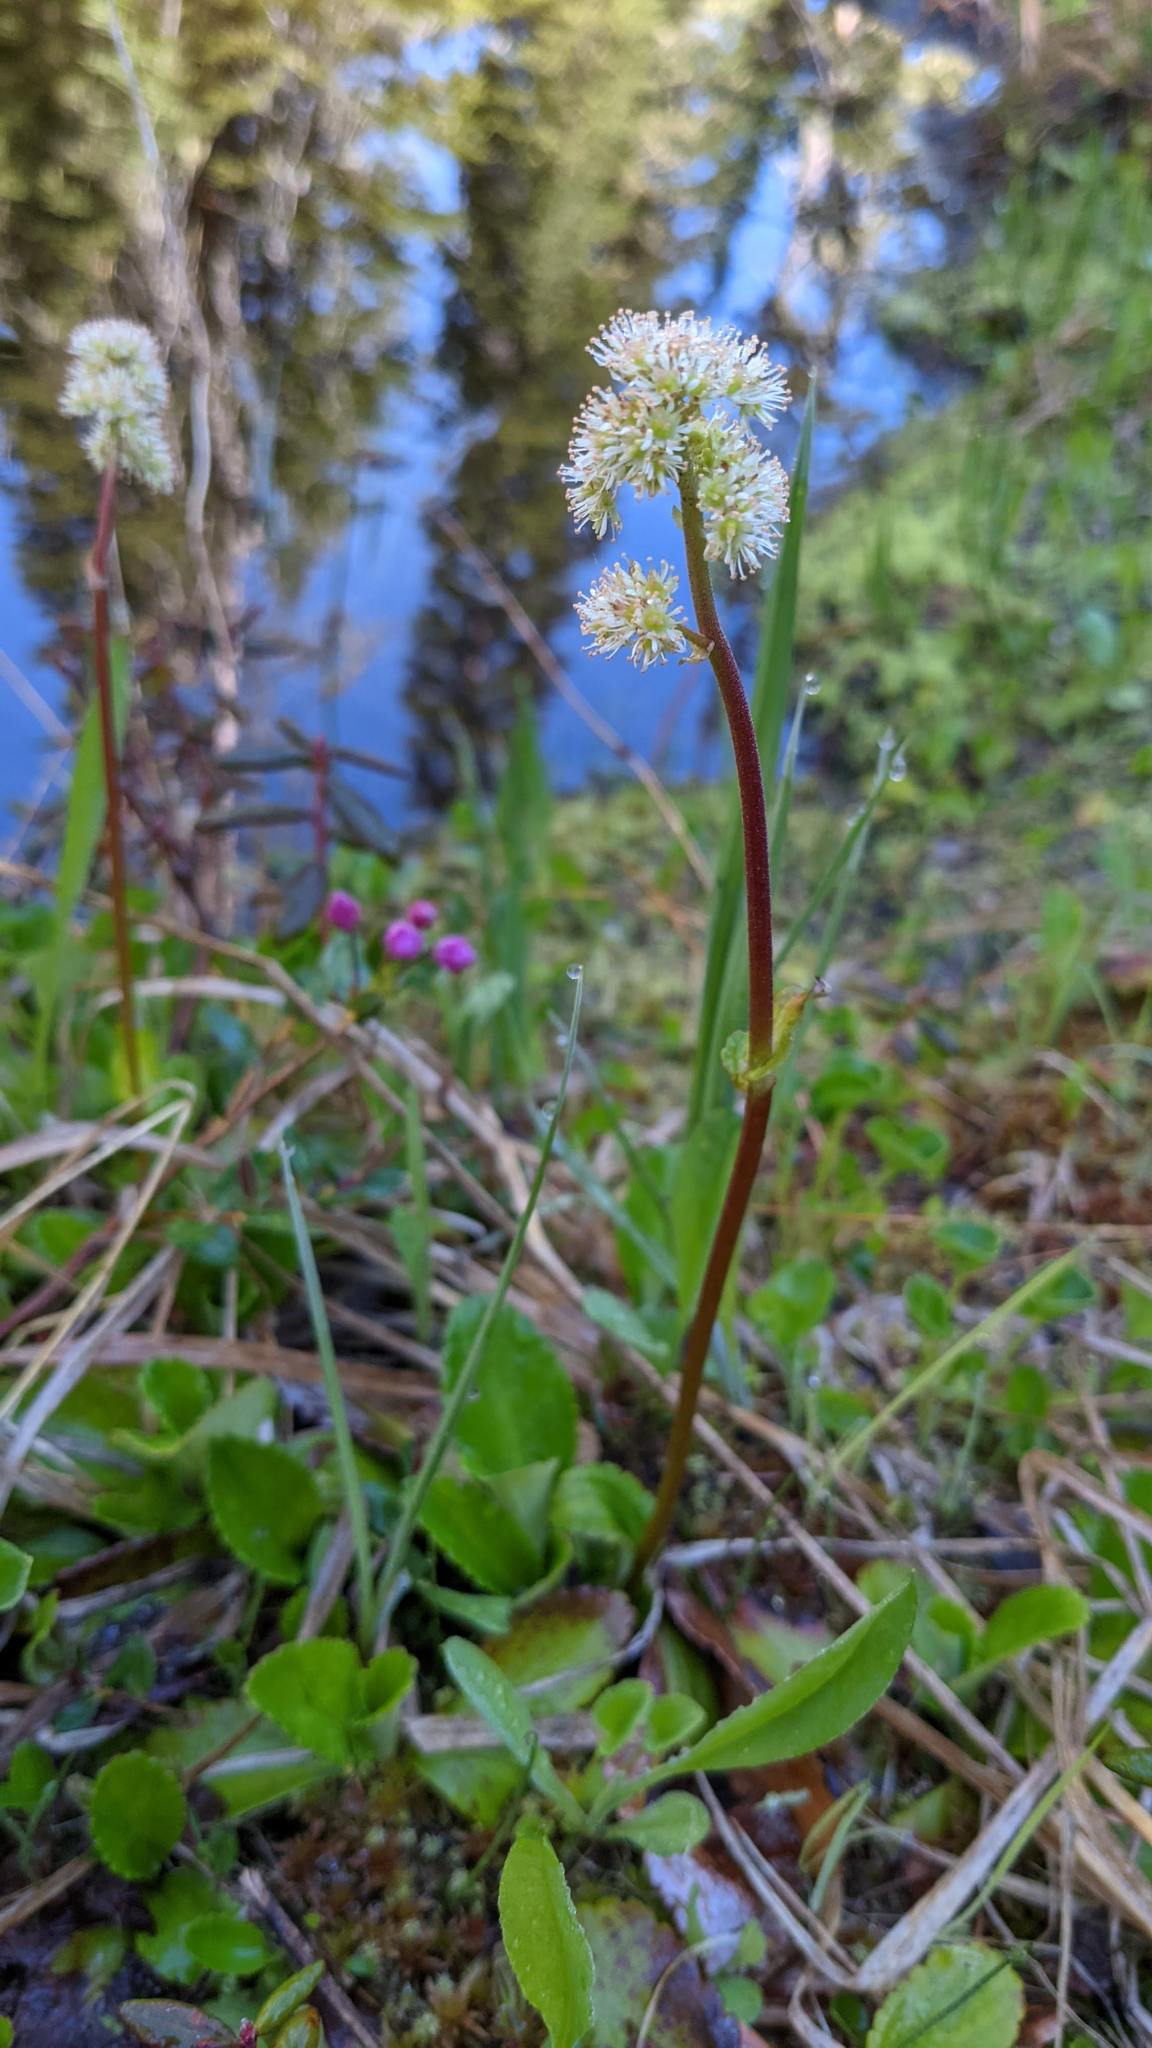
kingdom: Plantae
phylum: Tracheophyta
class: Magnoliopsida
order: Saxifragales
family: Saxifragaceae
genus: Leptarrhena
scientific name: Leptarrhena pyrolifolia
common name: Leatherleaf-saxifrage
